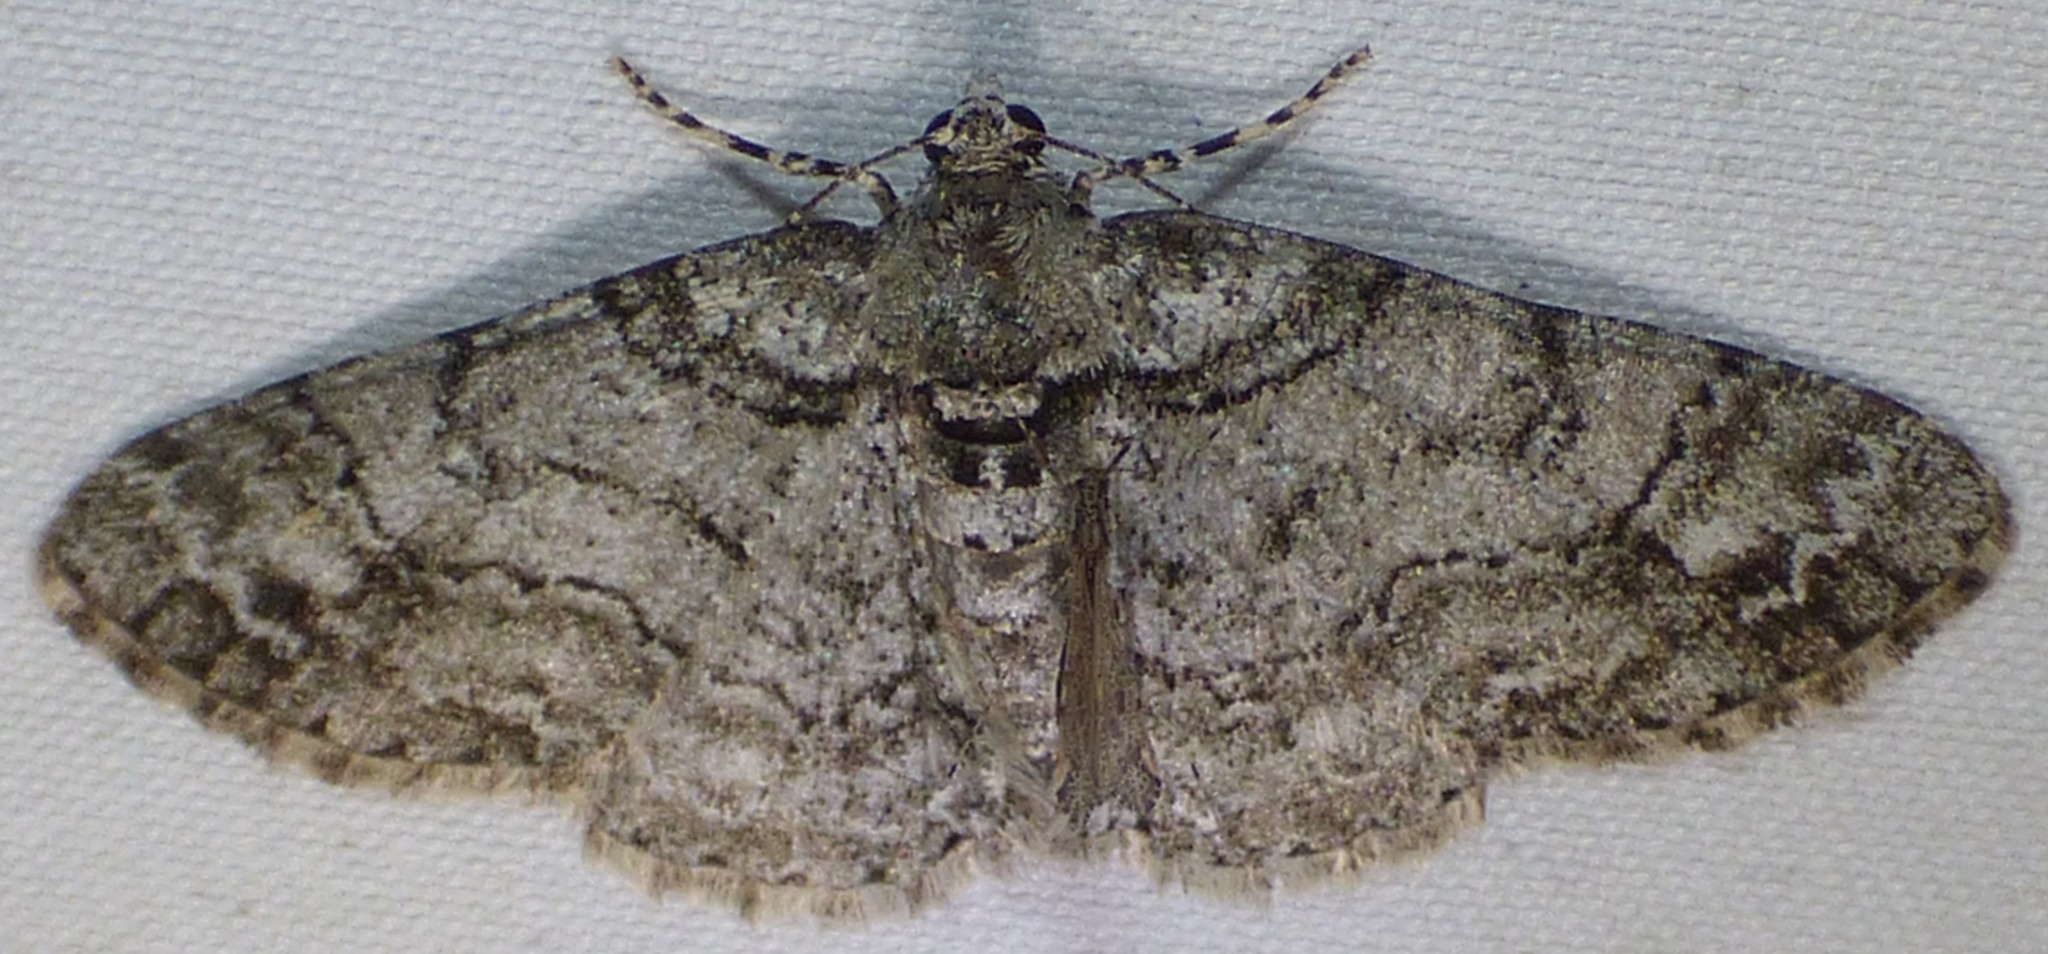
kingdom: Animalia
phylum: Arthropoda
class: Insecta
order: Lepidoptera
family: Geometridae
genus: Cleora
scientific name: Cleora sublunaria
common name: Double-lined gray
